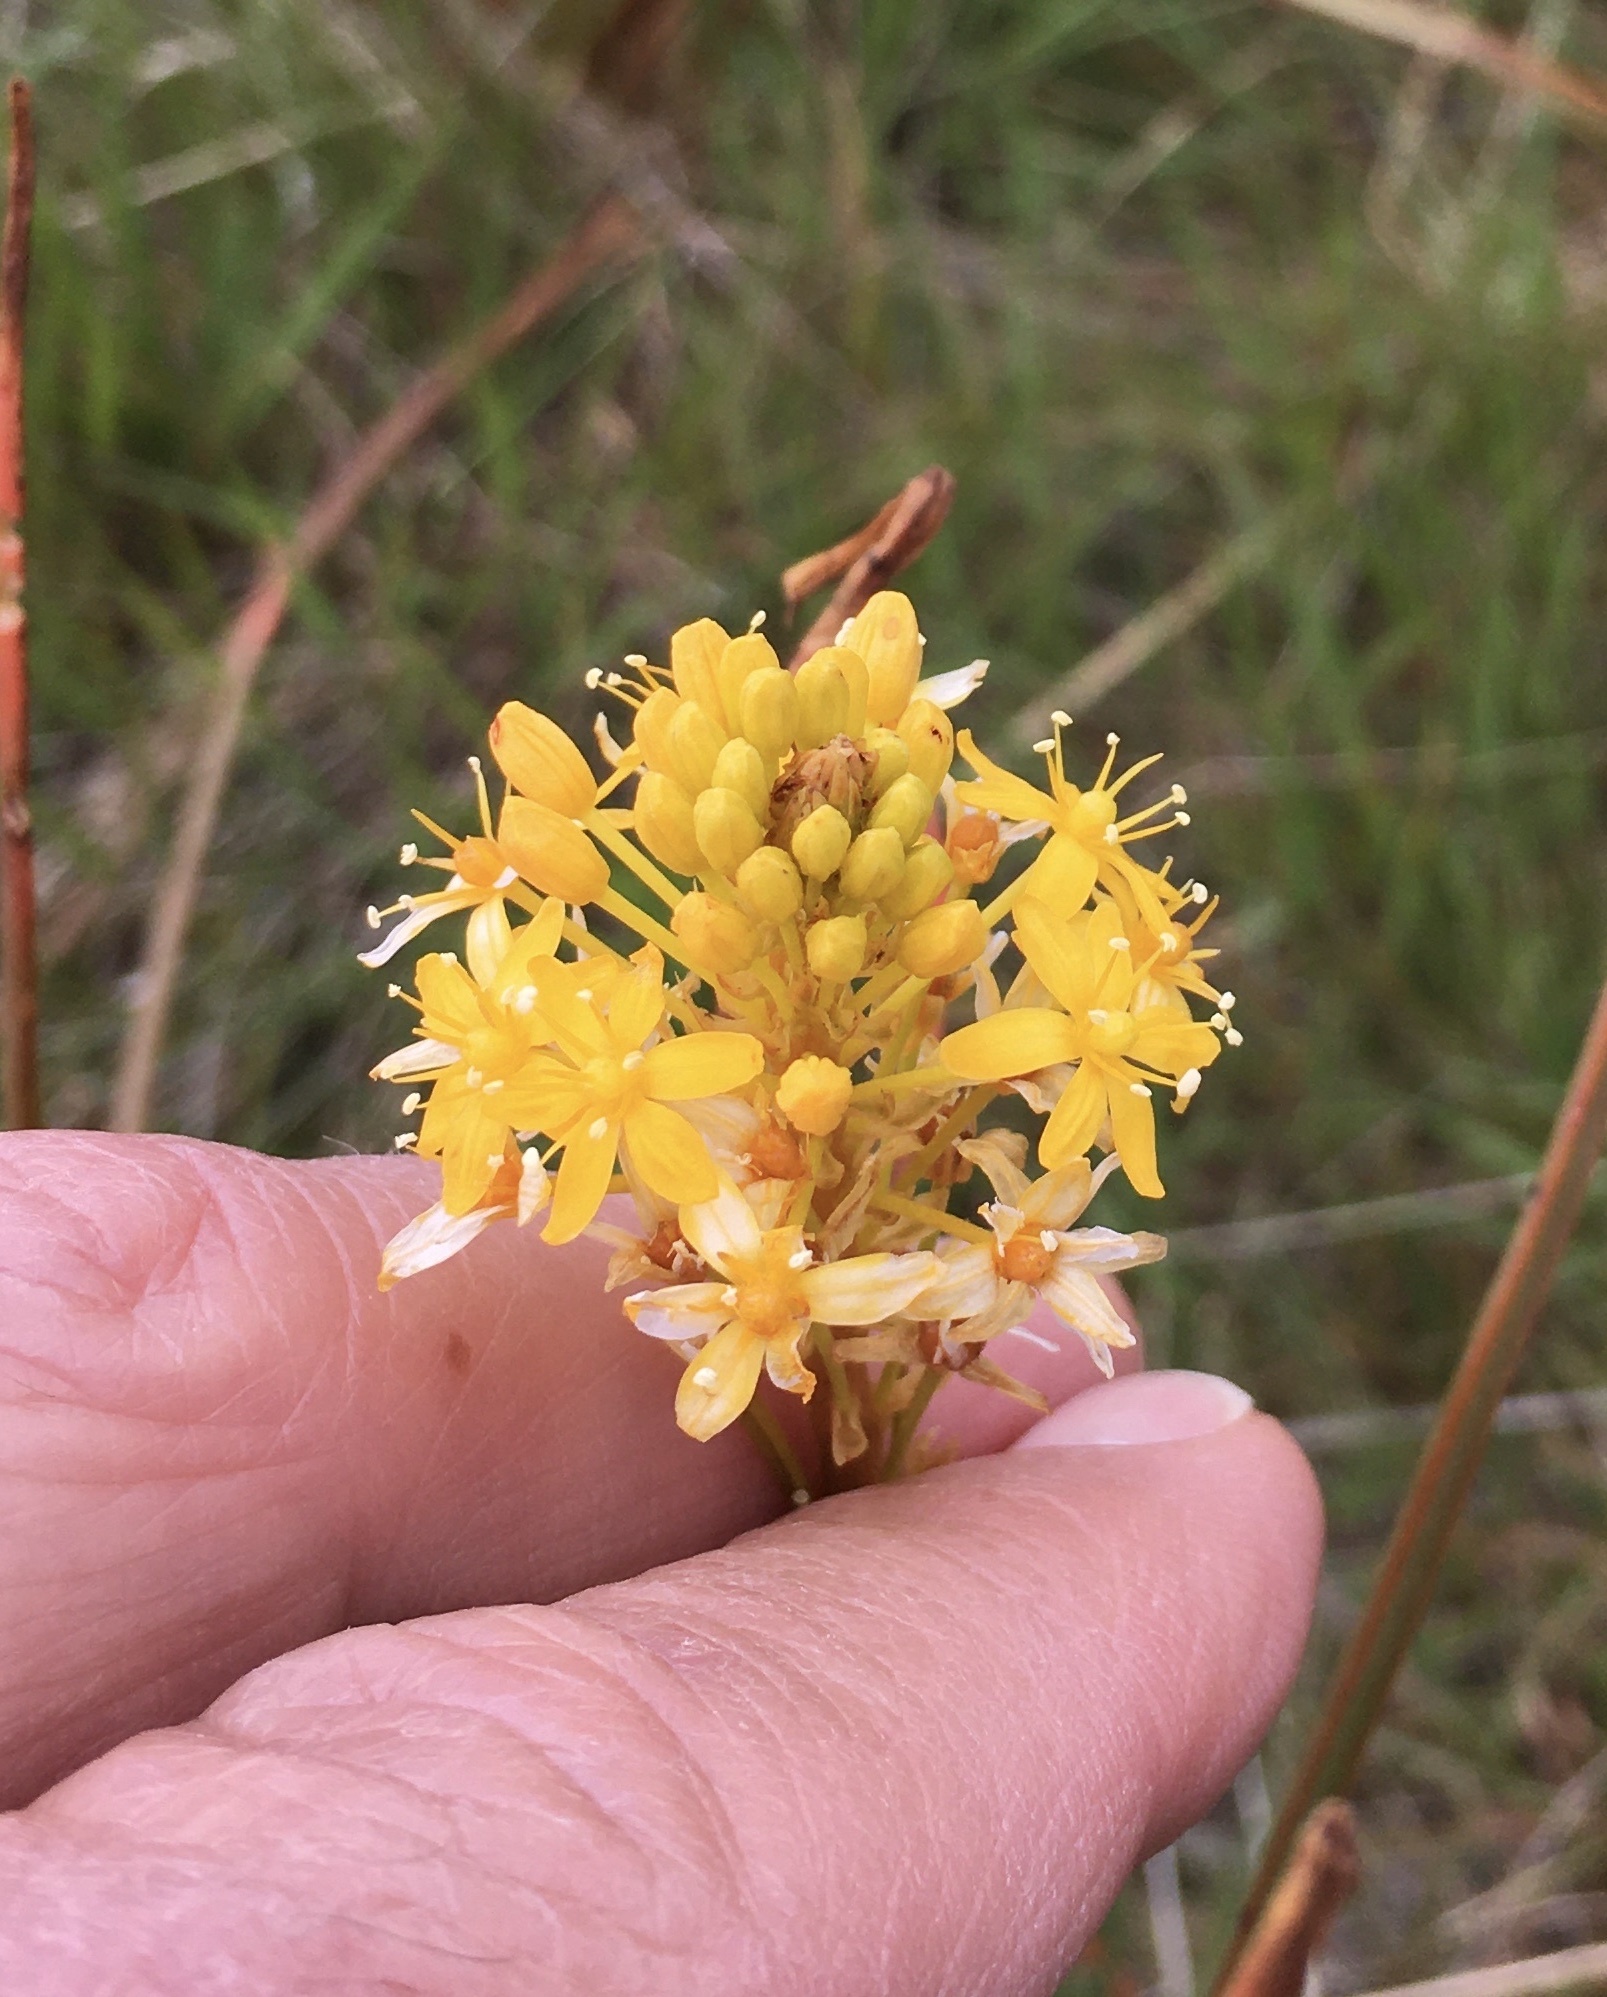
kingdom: Plantae
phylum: Tracheophyta
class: Liliopsida
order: Asparagales
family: Asphodelaceae
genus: Bulbinella
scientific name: Bulbinella angustifolia
